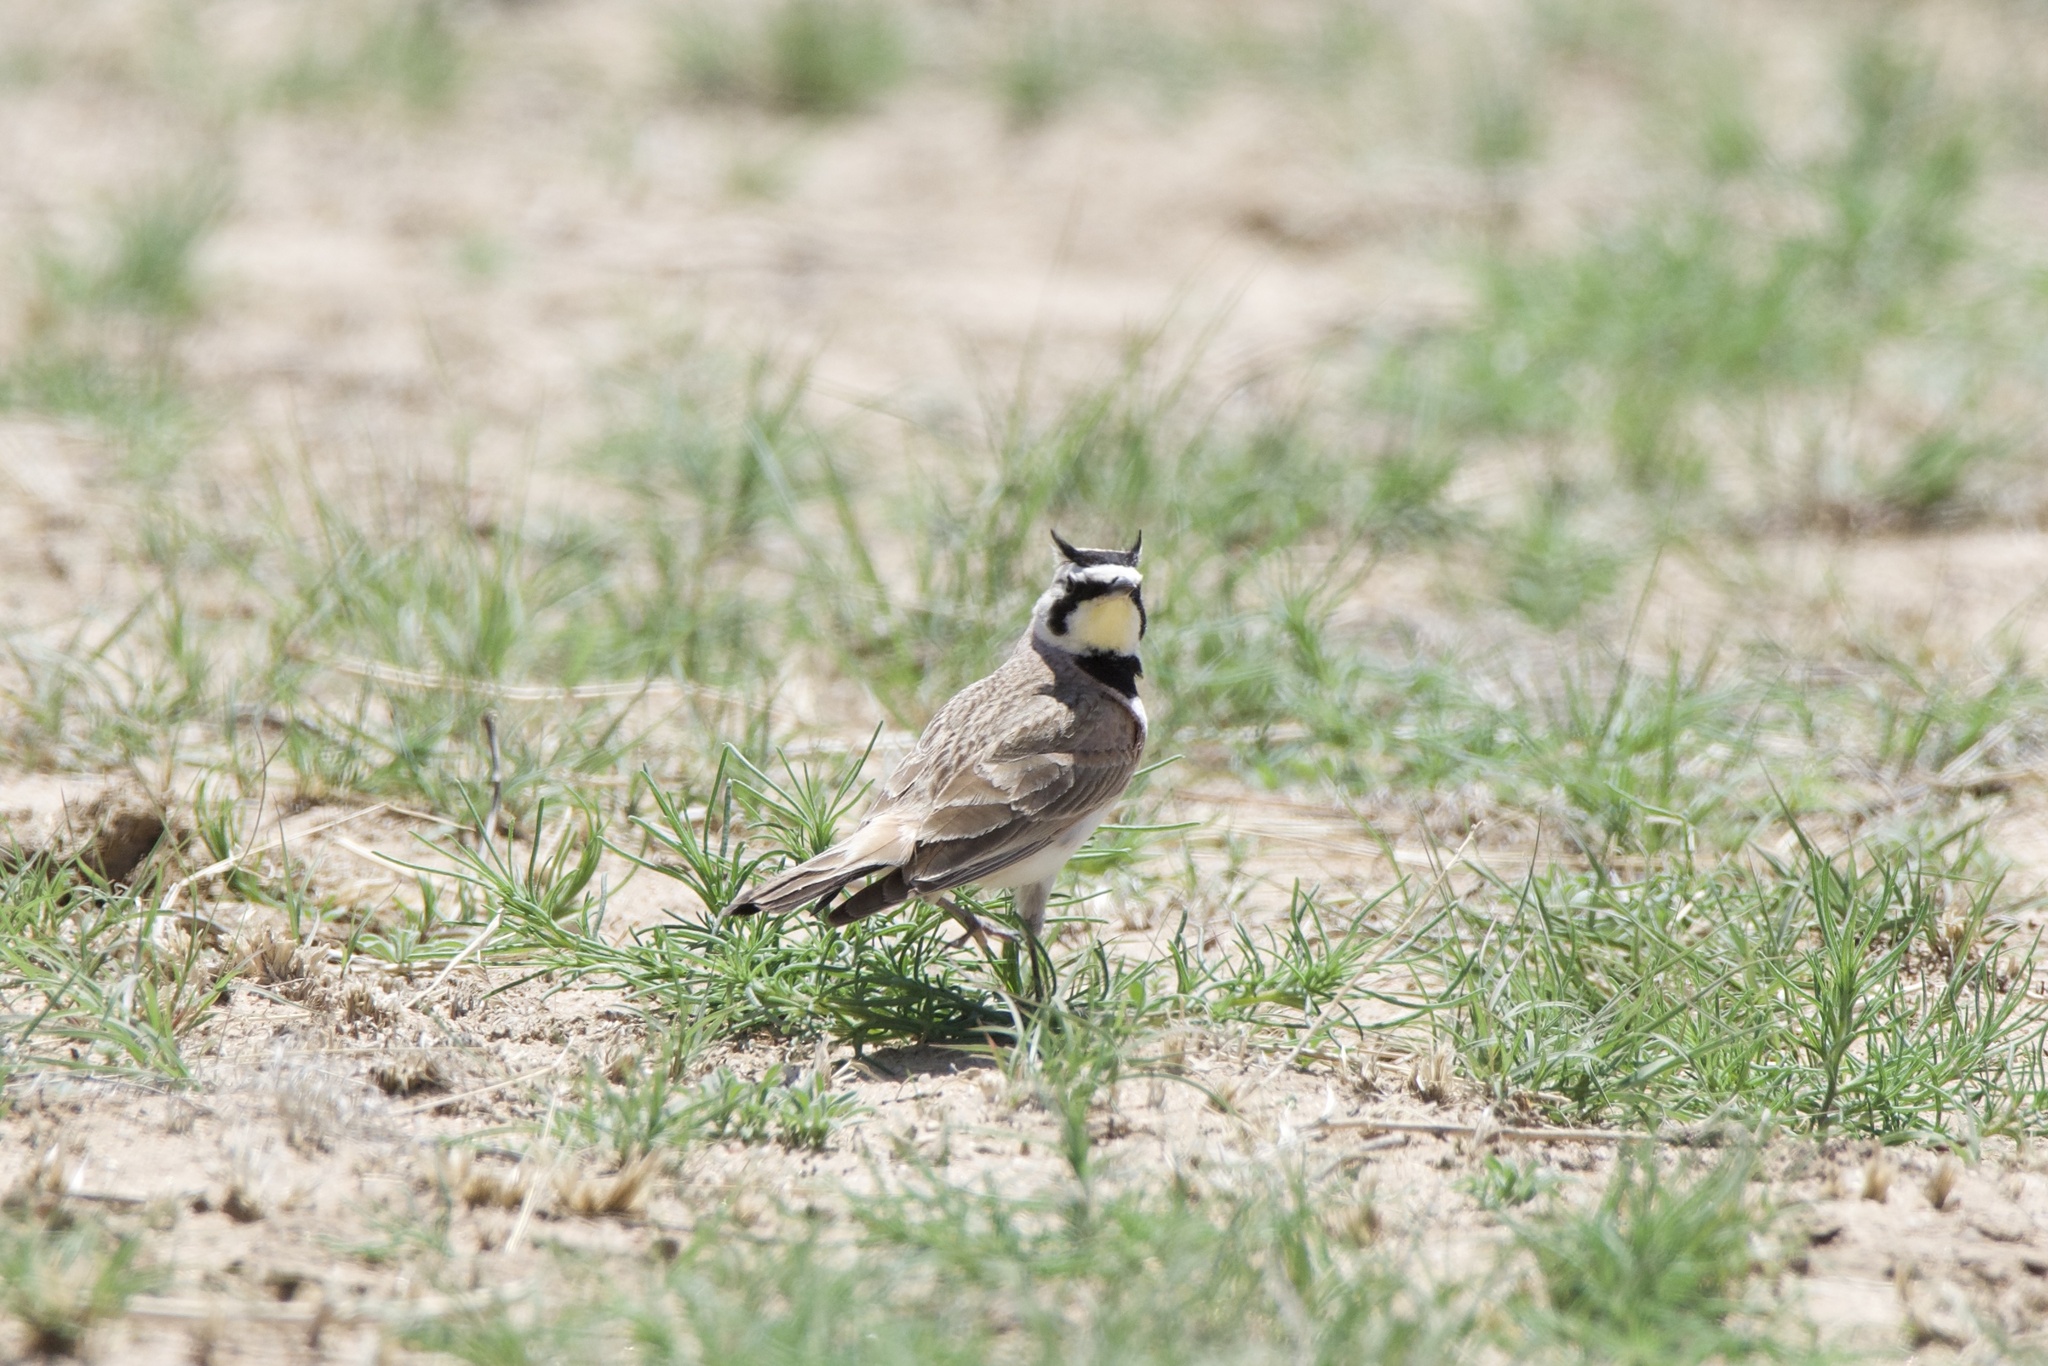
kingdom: Animalia
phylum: Chordata
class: Aves
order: Passeriformes
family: Alaudidae
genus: Eremophila
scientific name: Eremophila alpestris
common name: Horned lark
